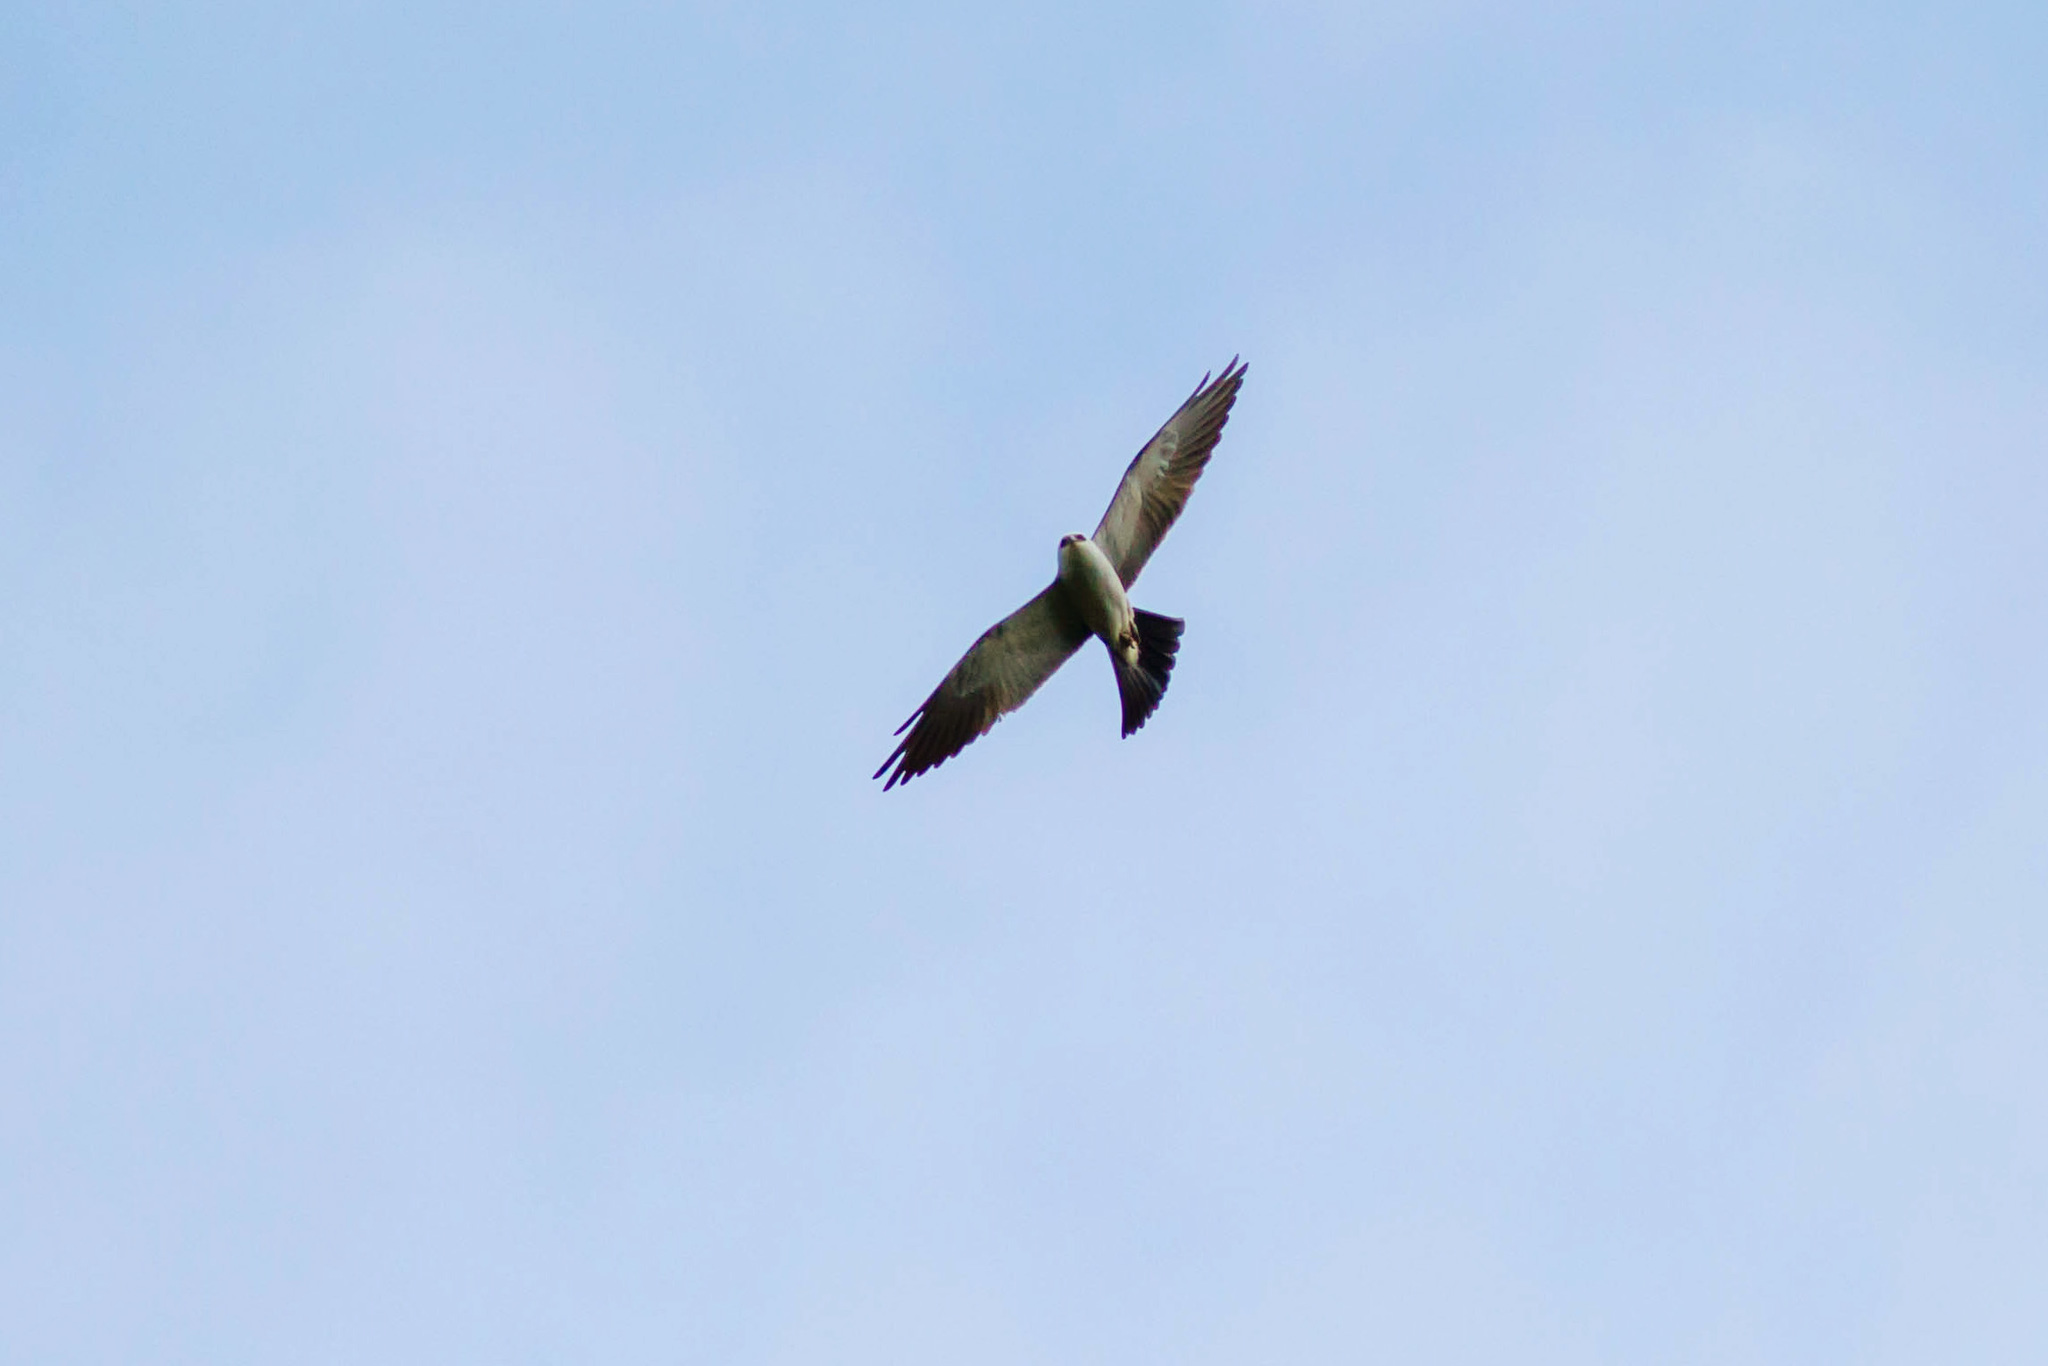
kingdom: Animalia
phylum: Chordata
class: Aves
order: Accipitriformes
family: Accipitridae
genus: Ictinia
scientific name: Ictinia mississippiensis
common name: Mississippi kite
